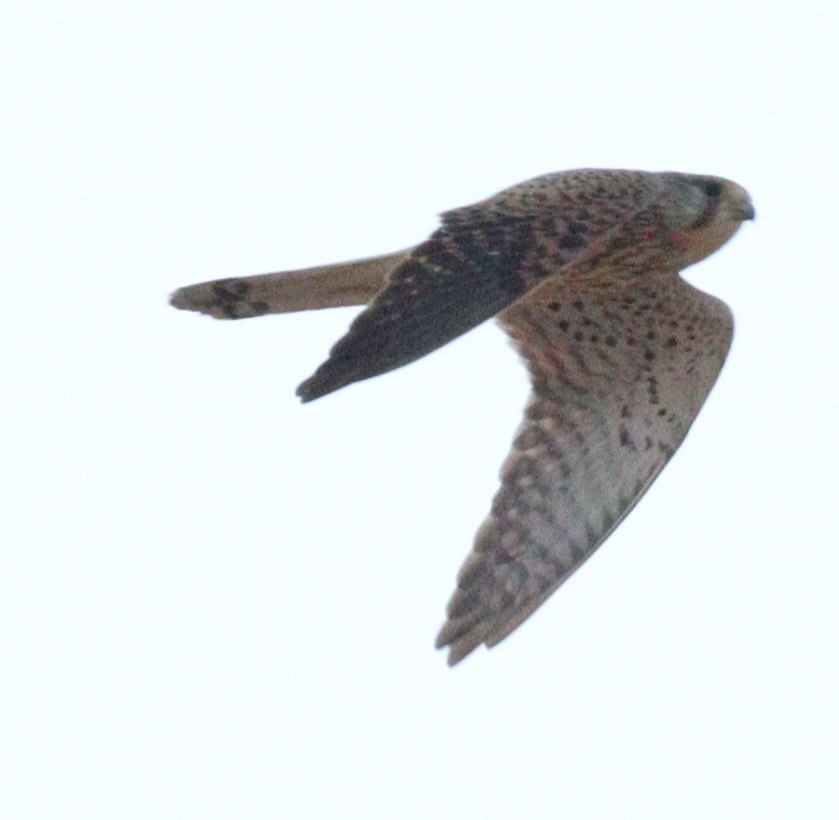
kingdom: Animalia
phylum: Chordata
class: Aves
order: Falconiformes
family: Falconidae
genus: Falco
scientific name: Falco tinnunculus
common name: Common kestrel
